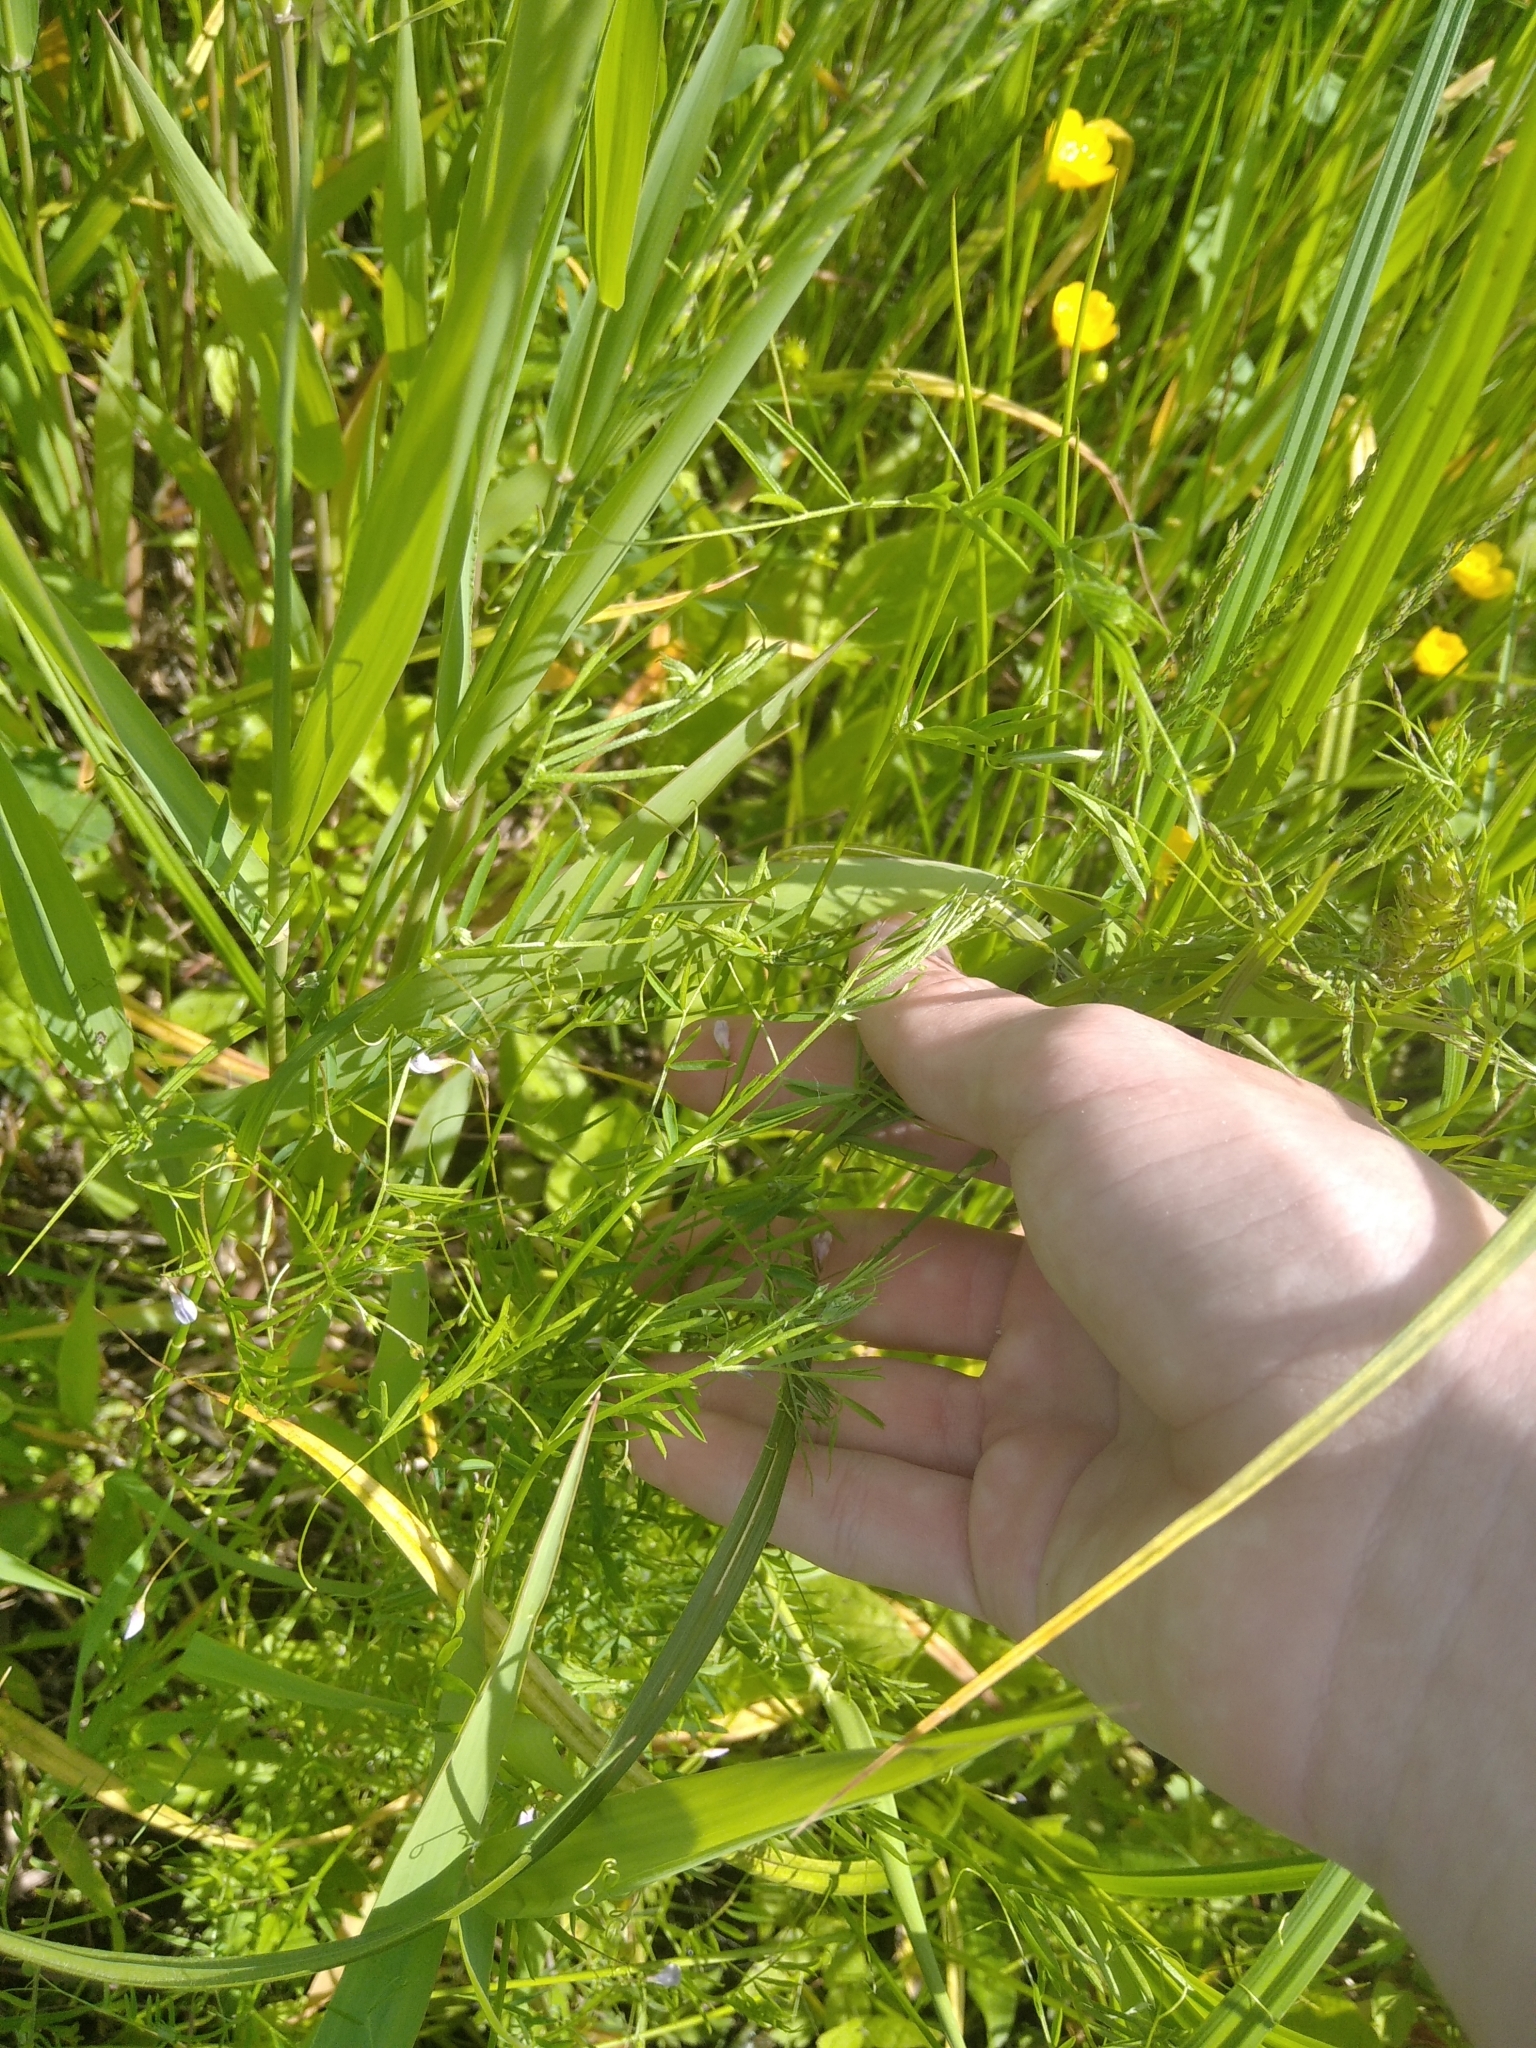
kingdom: Plantae
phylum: Tracheophyta
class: Magnoliopsida
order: Fabales
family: Fabaceae
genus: Vicia
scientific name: Vicia tetrasperma
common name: Smooth tare
